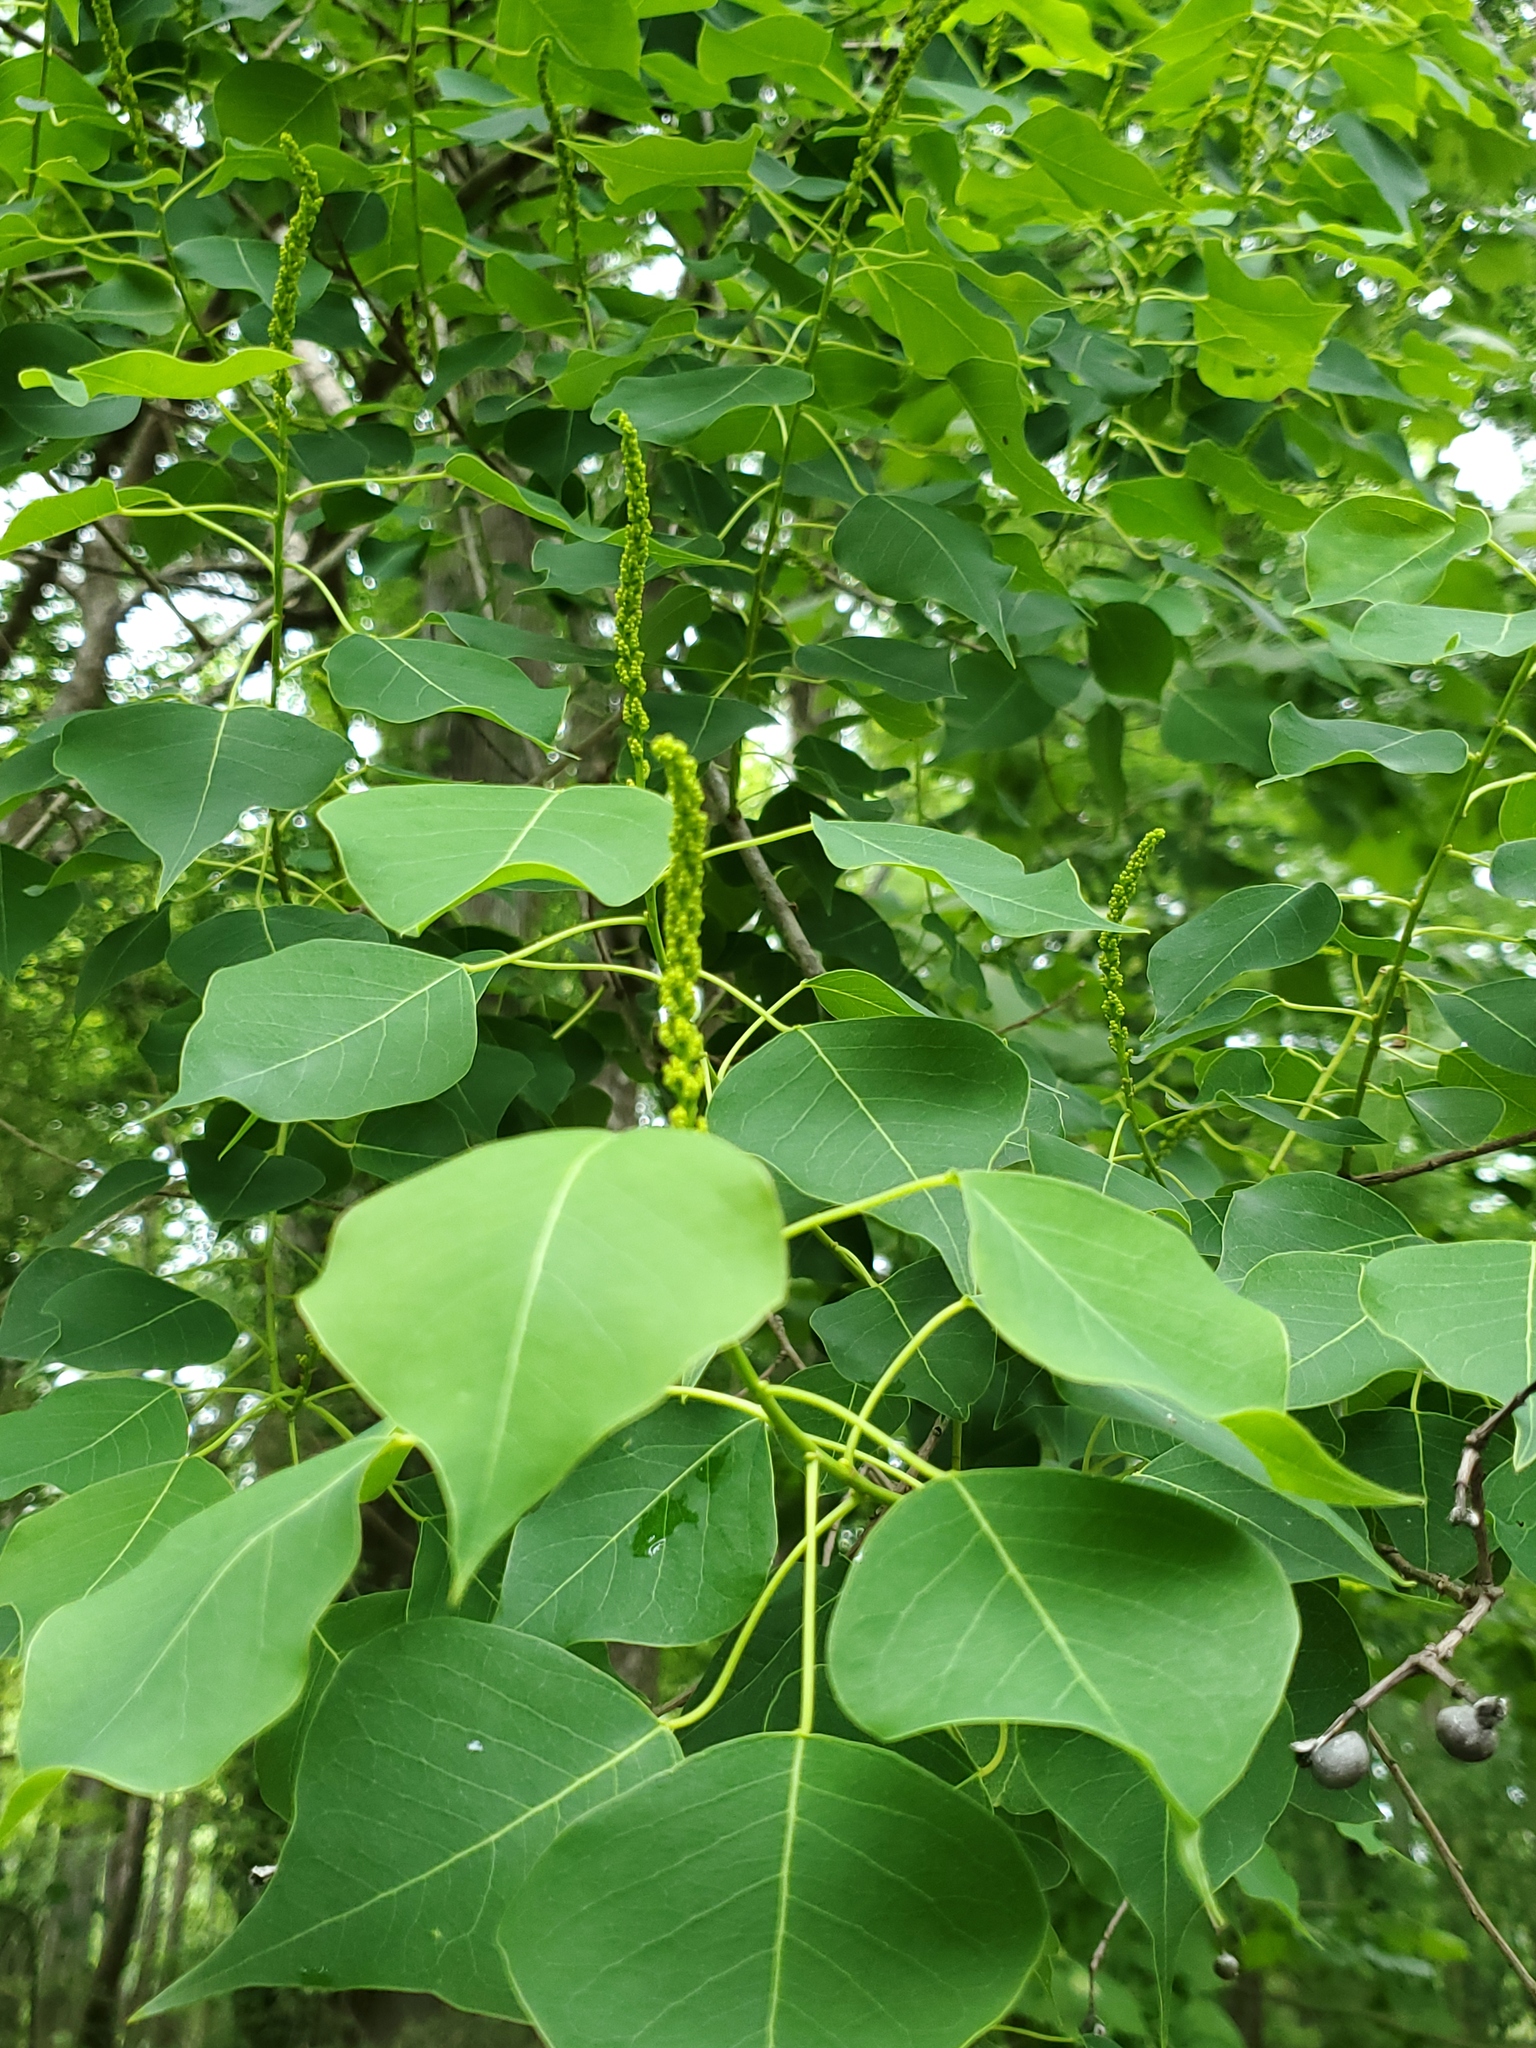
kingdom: Plantae
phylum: Tracheophyta
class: Magnoliopsida
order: Malpighiales
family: Euphorbiaceae
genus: Triadica
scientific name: Triadica sebifera
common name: Chinese tallow
